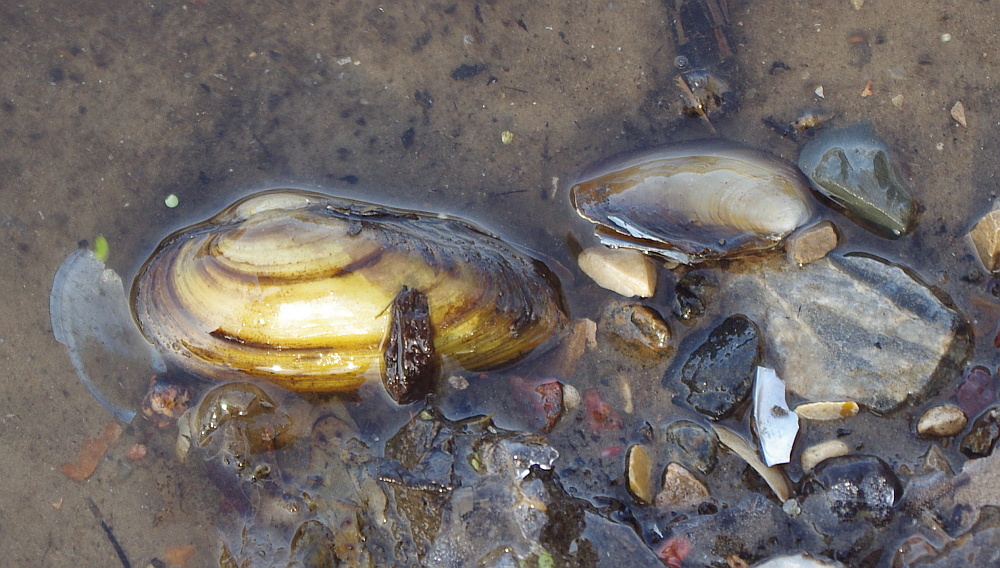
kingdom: Animalia
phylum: Mollusca
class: Bivalvia
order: Unionida
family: Unionidae
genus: Unio
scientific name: Unio pictorum
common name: Painter's mussel
